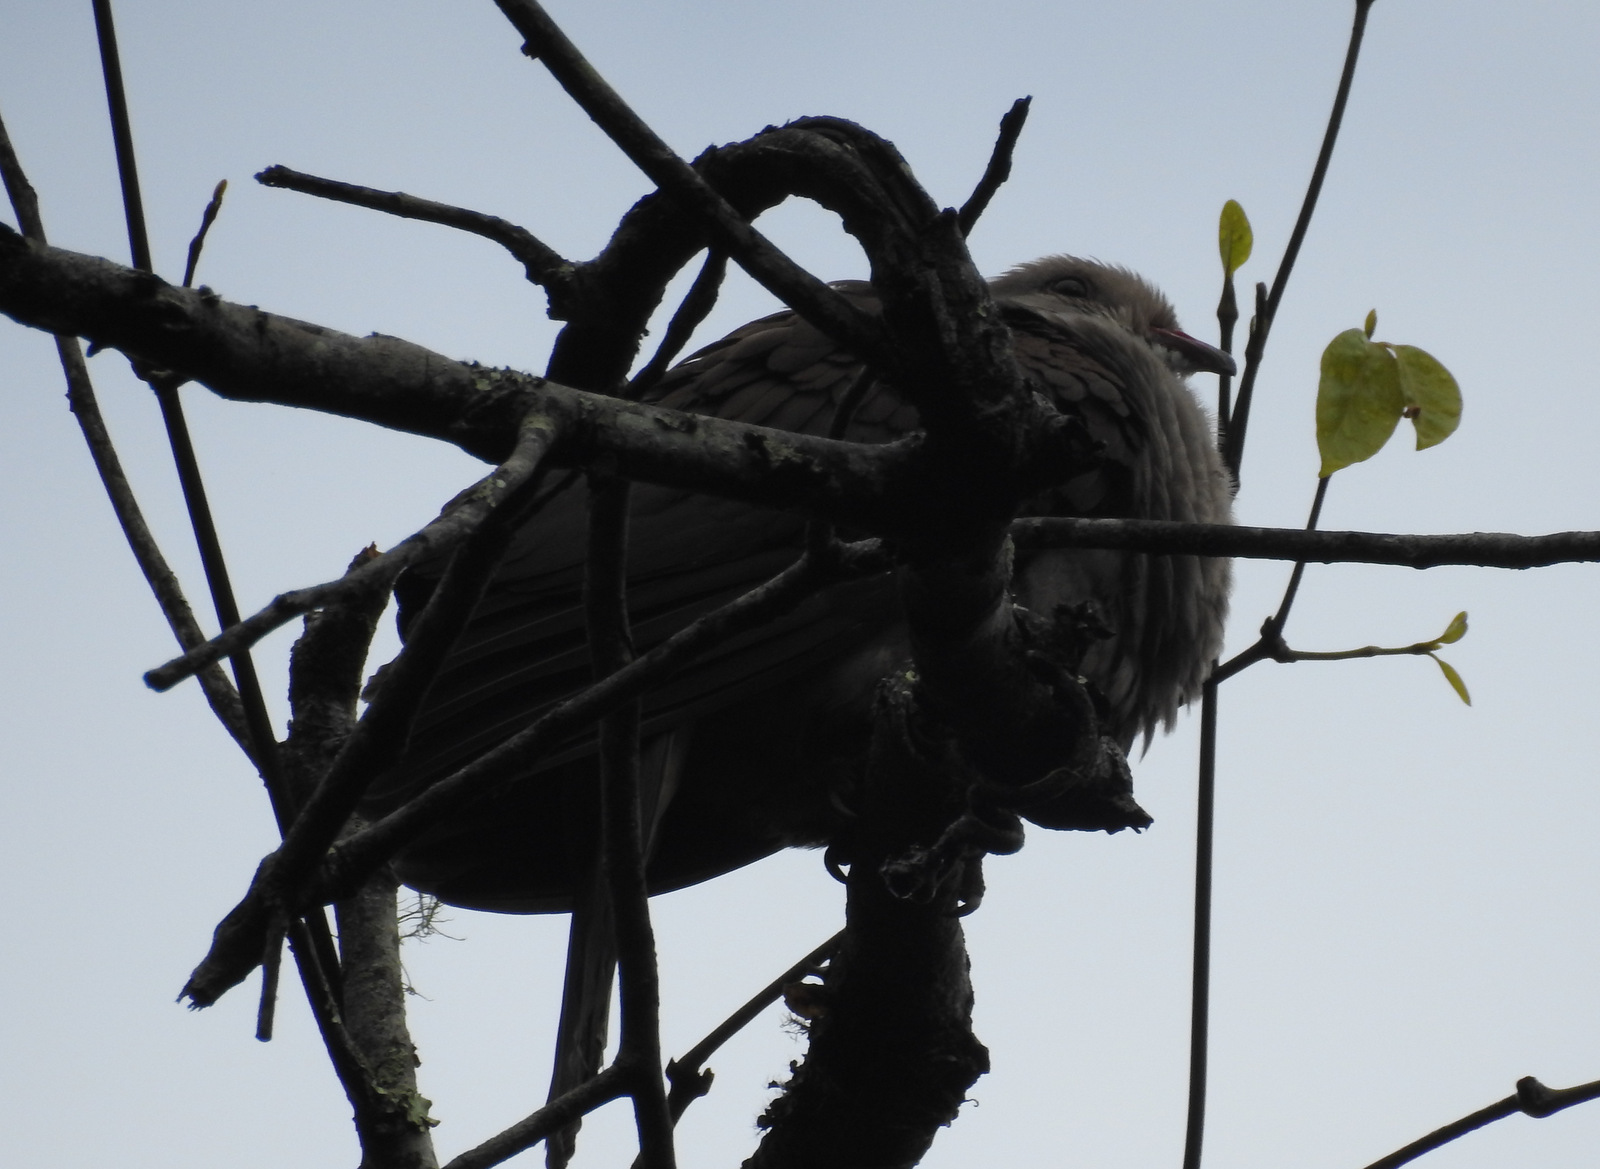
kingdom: Animalia
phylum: Chordata
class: Aves
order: Columbiformes
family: Columbidae
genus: Columba
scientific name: Columba elphinstonii
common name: Nilgiri wood pigeon
